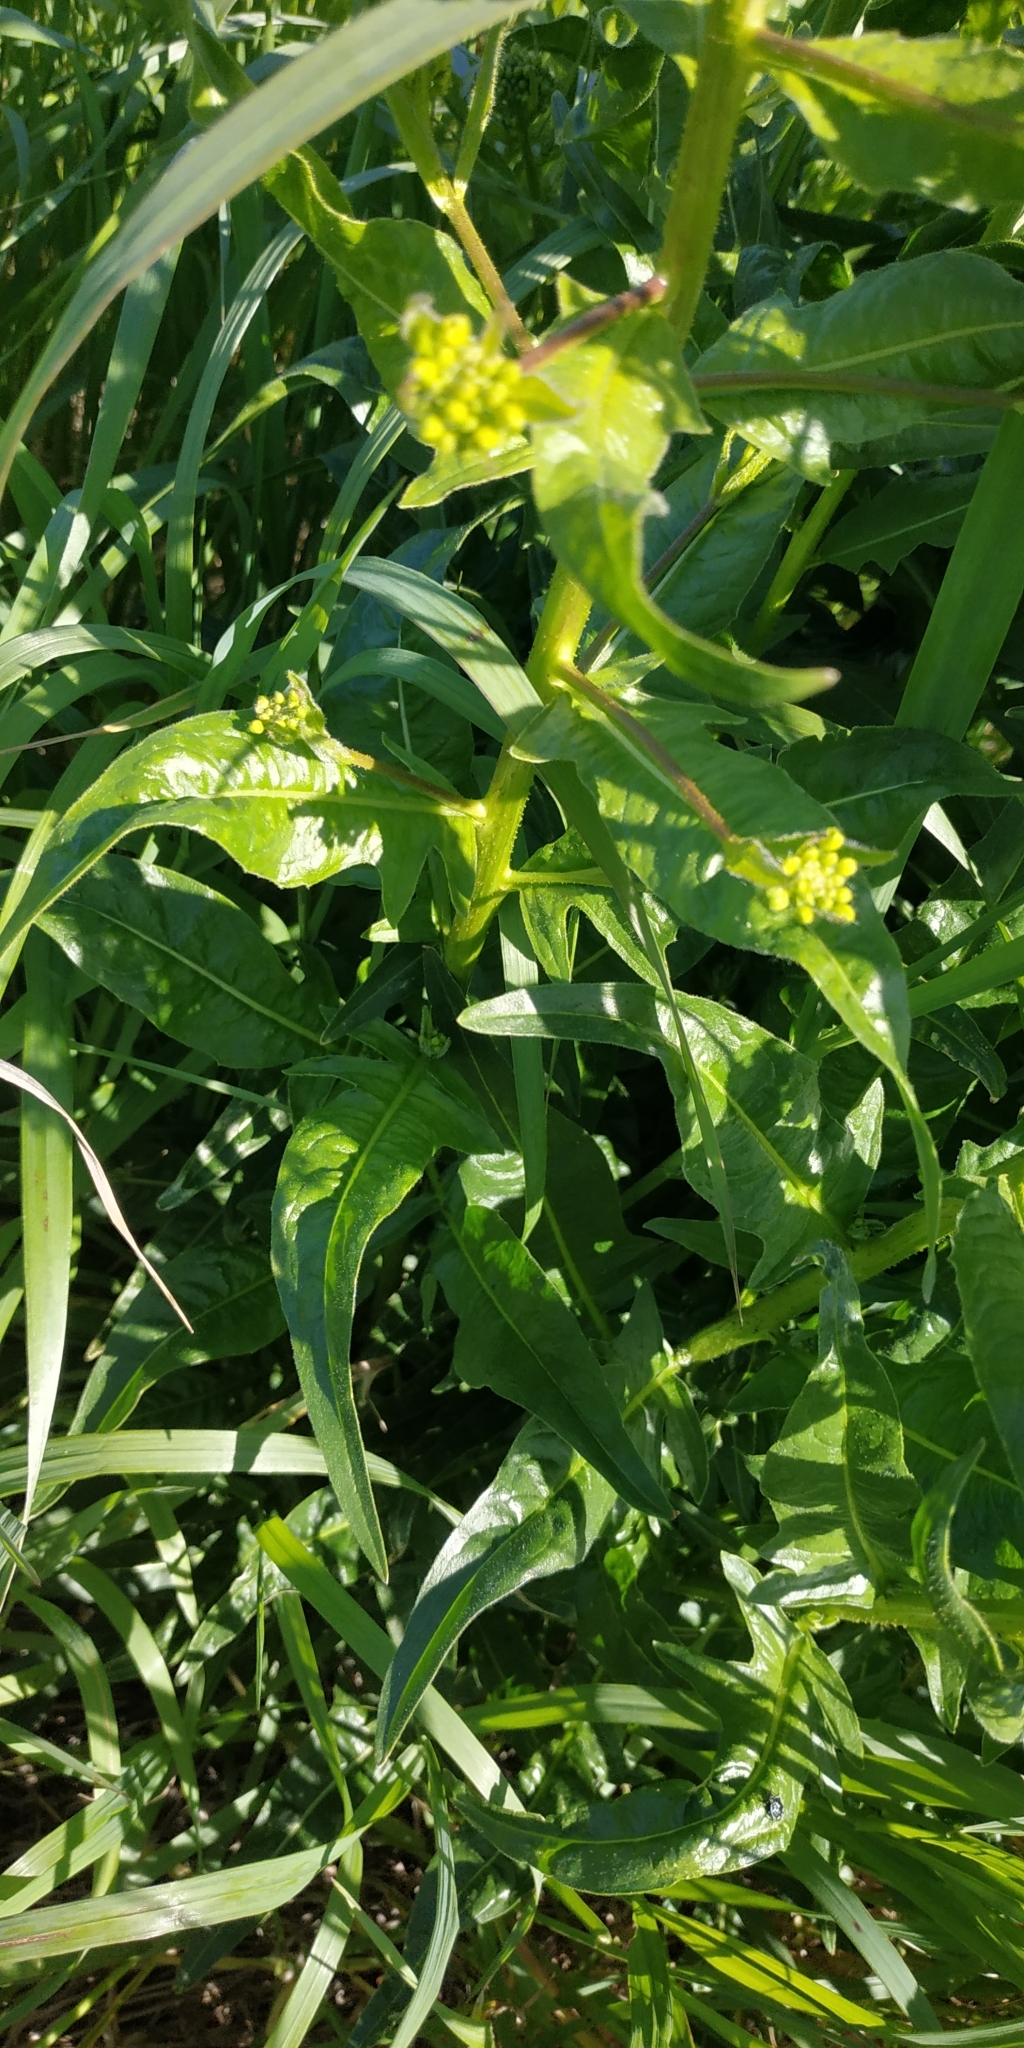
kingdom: Plantae
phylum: Tracheophyta
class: Magnoliopsida
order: Brassicales
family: Brassicaceae
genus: Bunias
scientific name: Bunias orientalis
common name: Warty-cabbage
